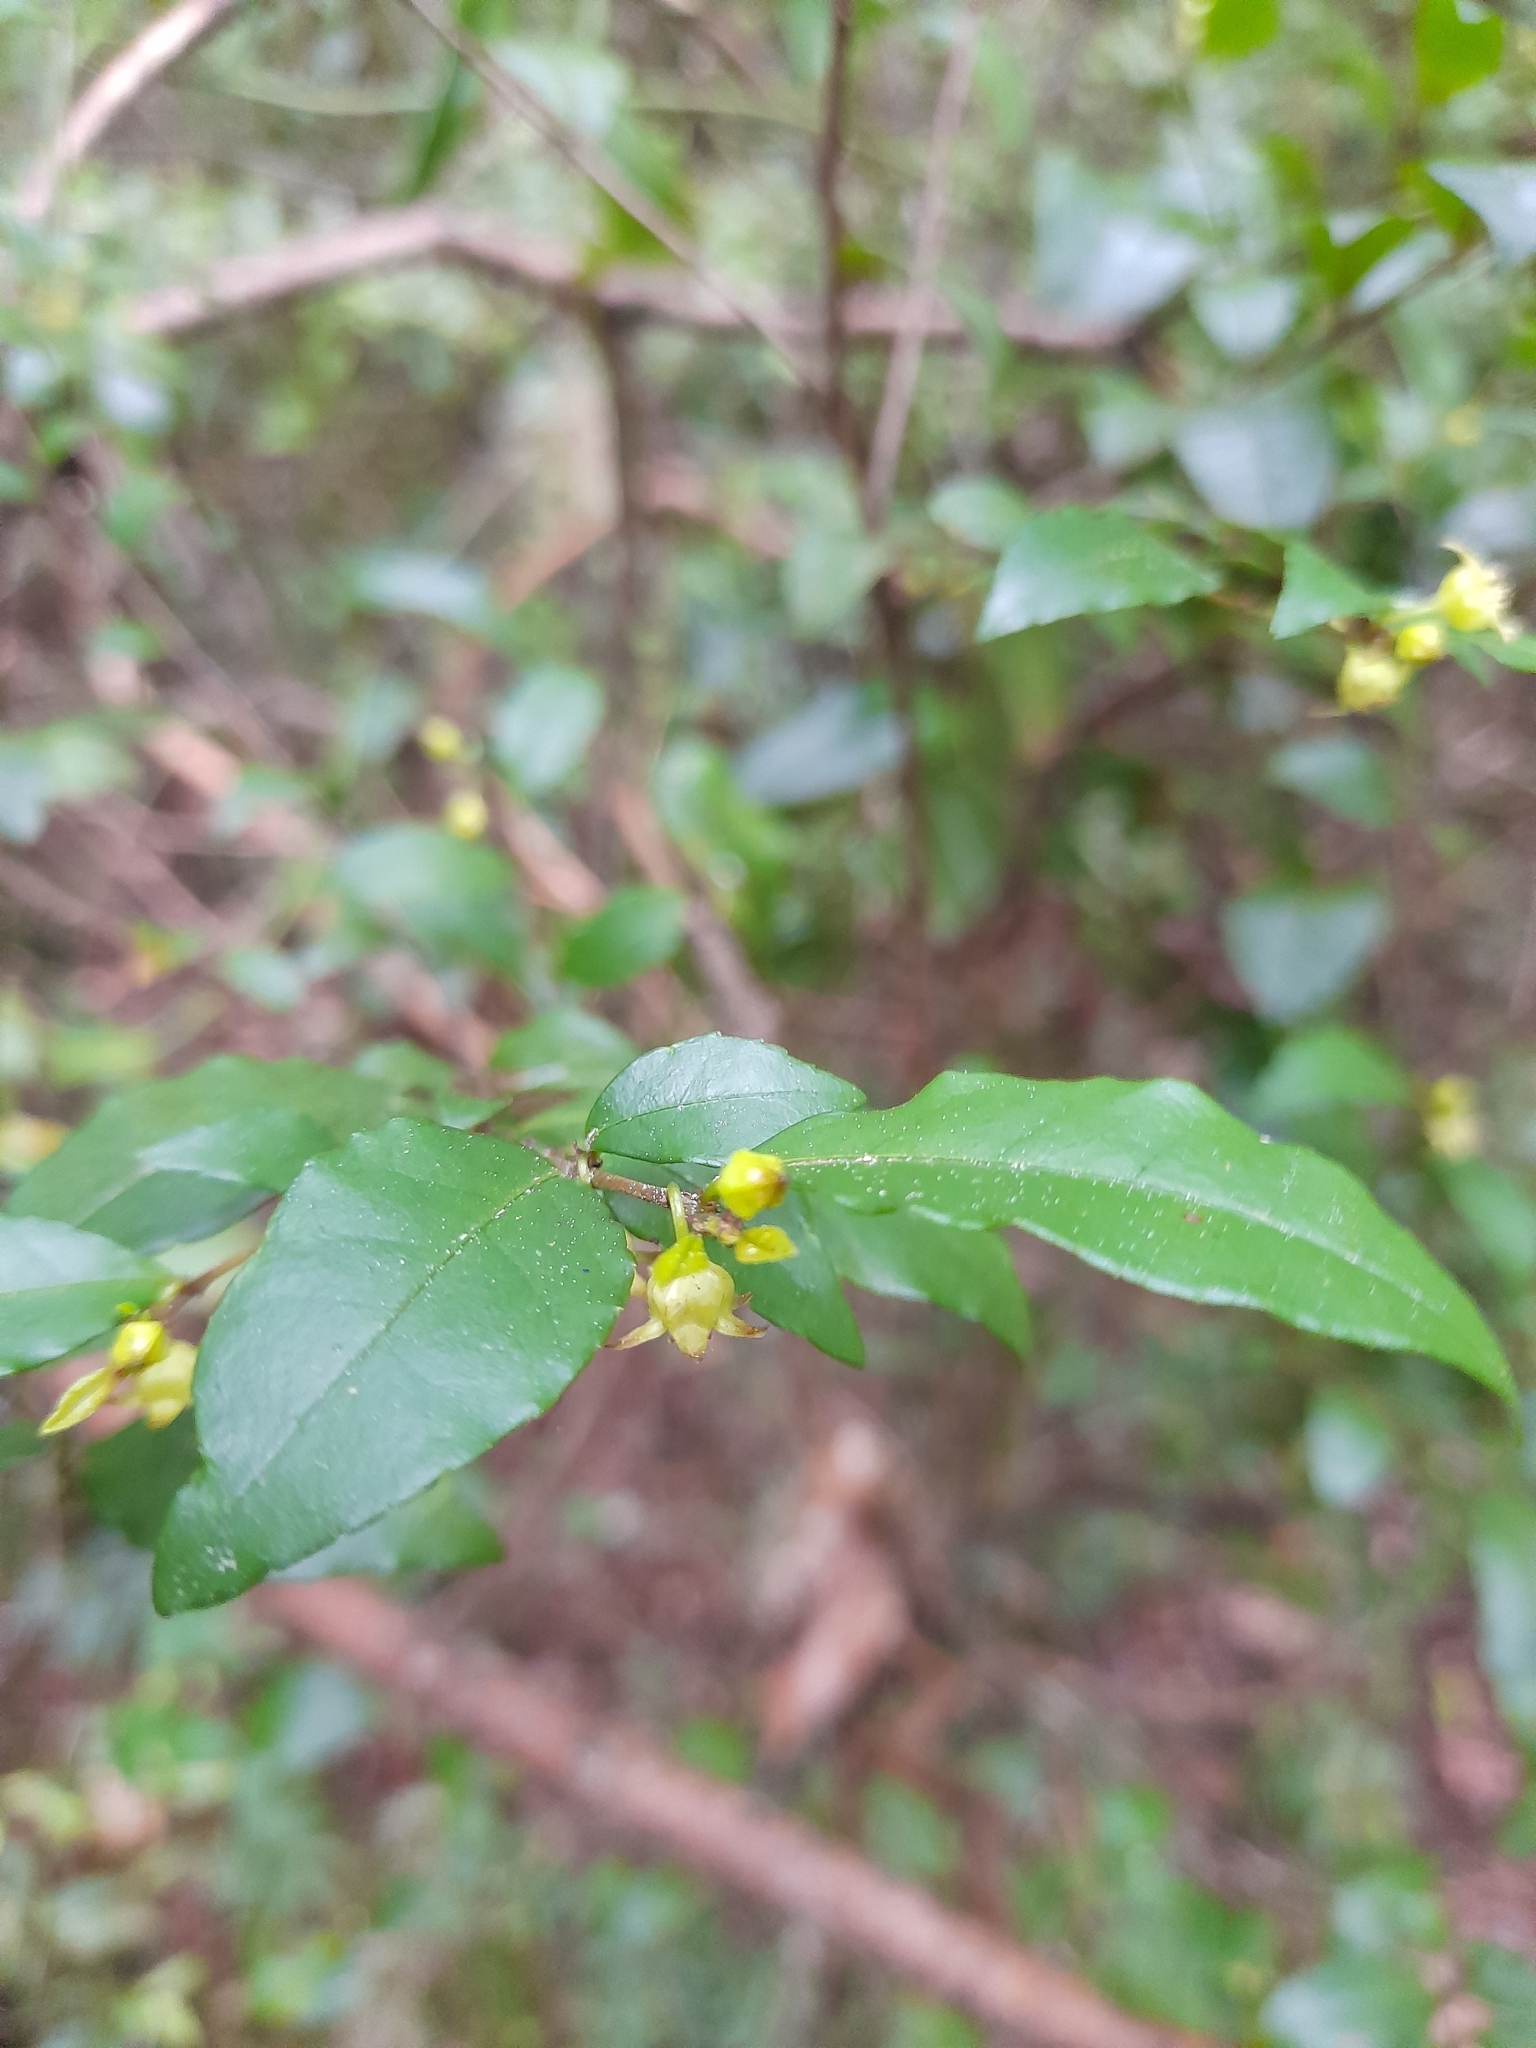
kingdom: Plantae
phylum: Tracheophyta
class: Magnoliopsida
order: Rosales
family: Rhamnaceae
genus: Condalia
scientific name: Condalia maytenoides
